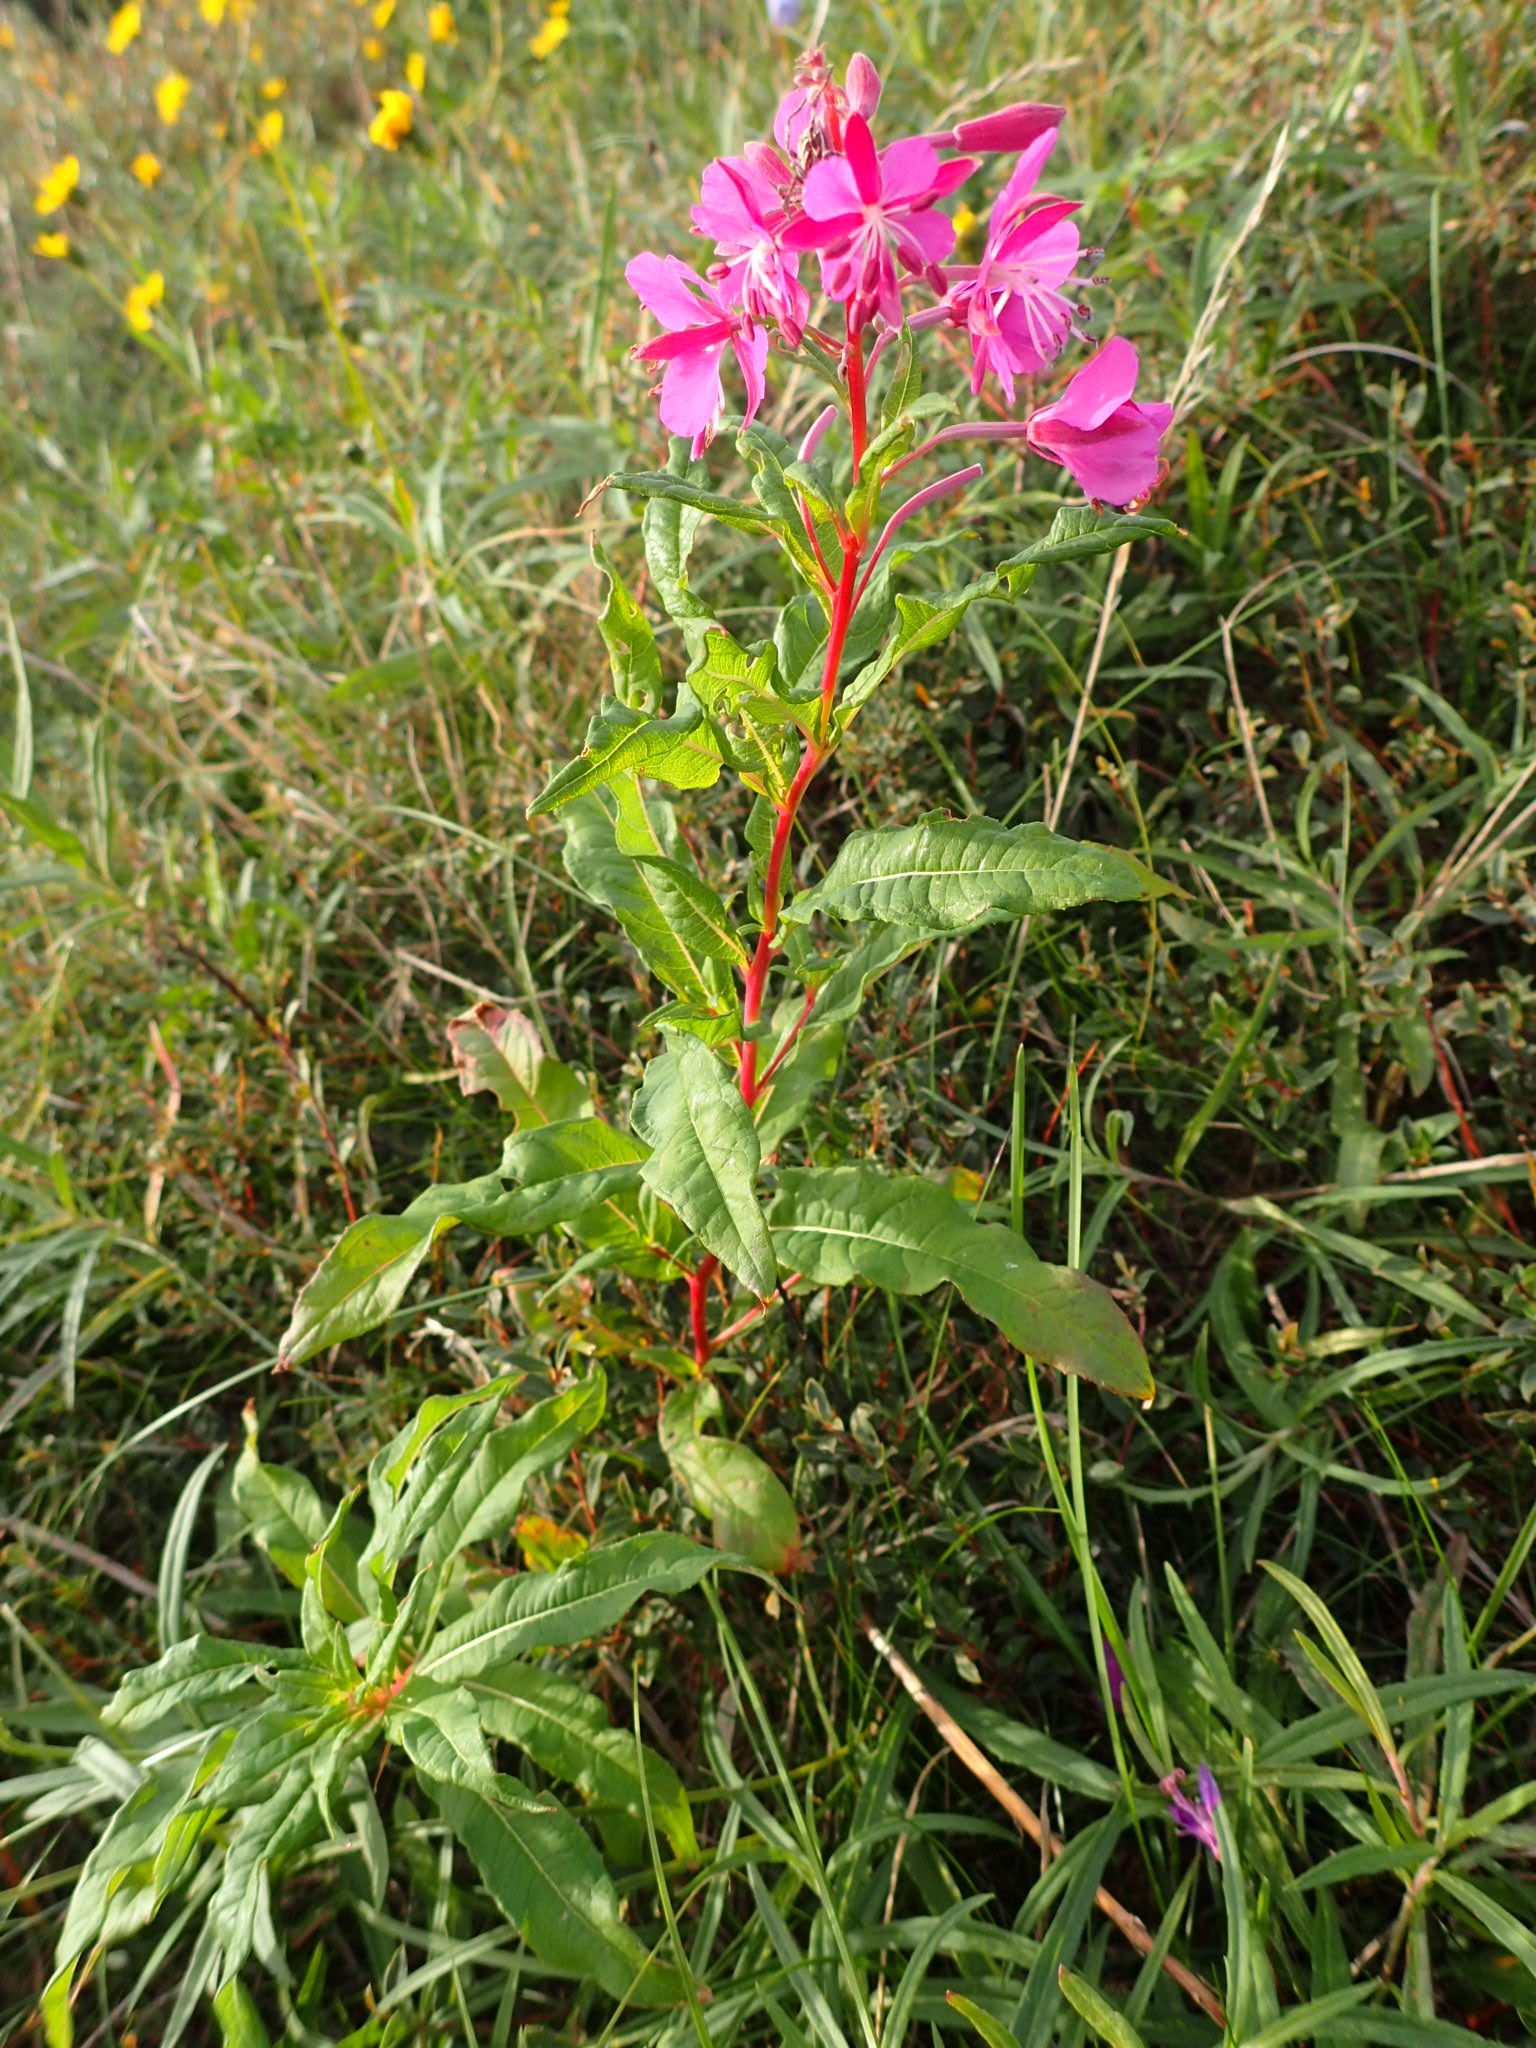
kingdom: Plantae
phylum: Tracheophyta
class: Magnoliopsida
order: Myrtales
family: Onagraceae
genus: Chamaenerion
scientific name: Chamaenerion angustifolium
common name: Fireweed
